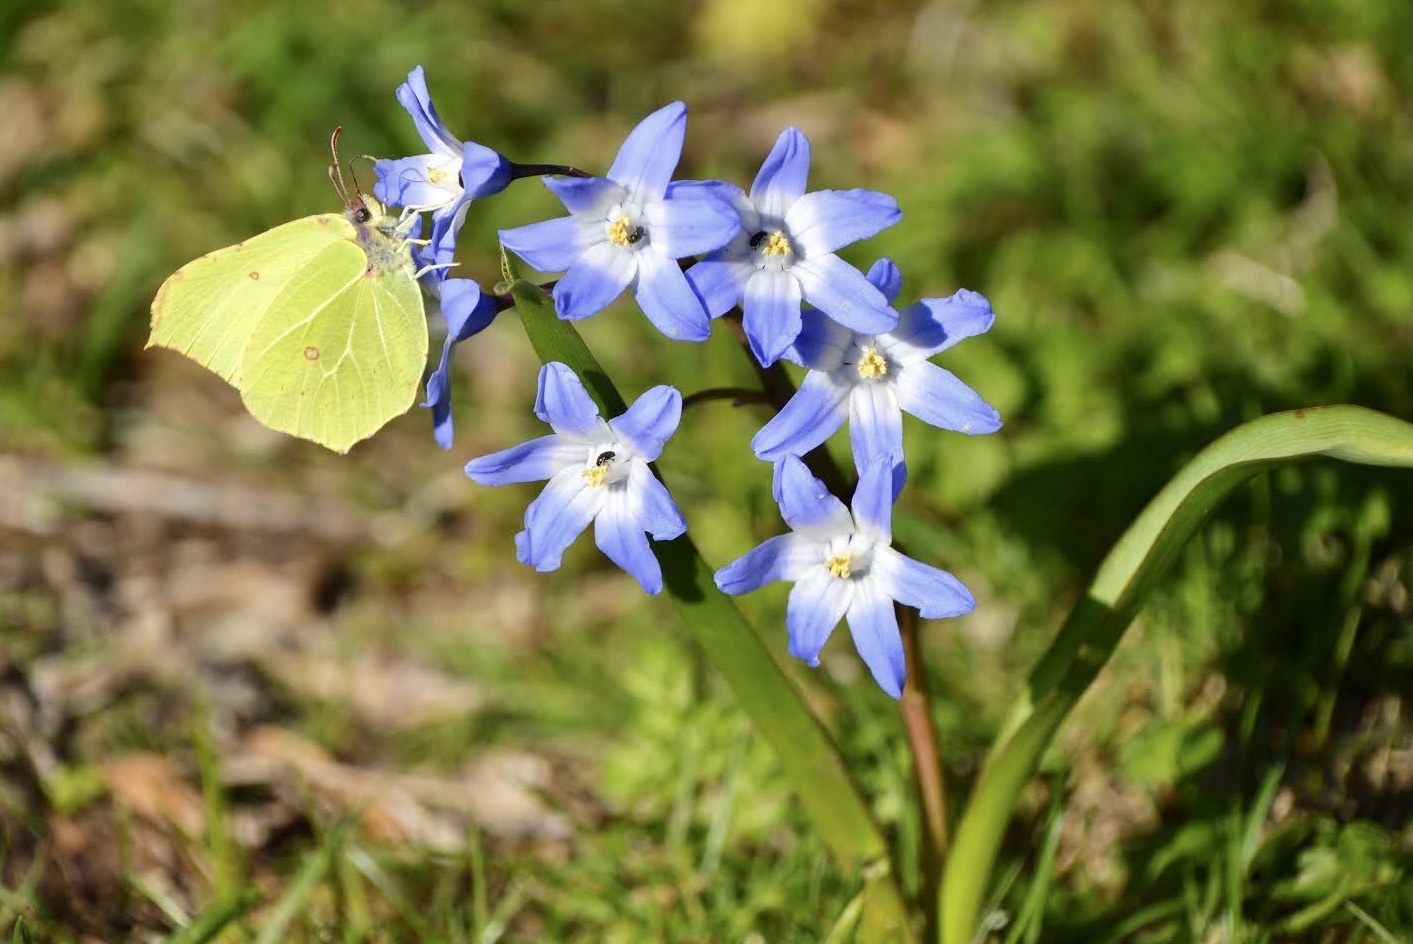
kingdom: Animalia
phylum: Arthropoda
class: Insecta
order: Lepidoptera
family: Pieridae
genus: Gonepteryx
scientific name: Gonepteryx rhamni
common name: Brimstone
